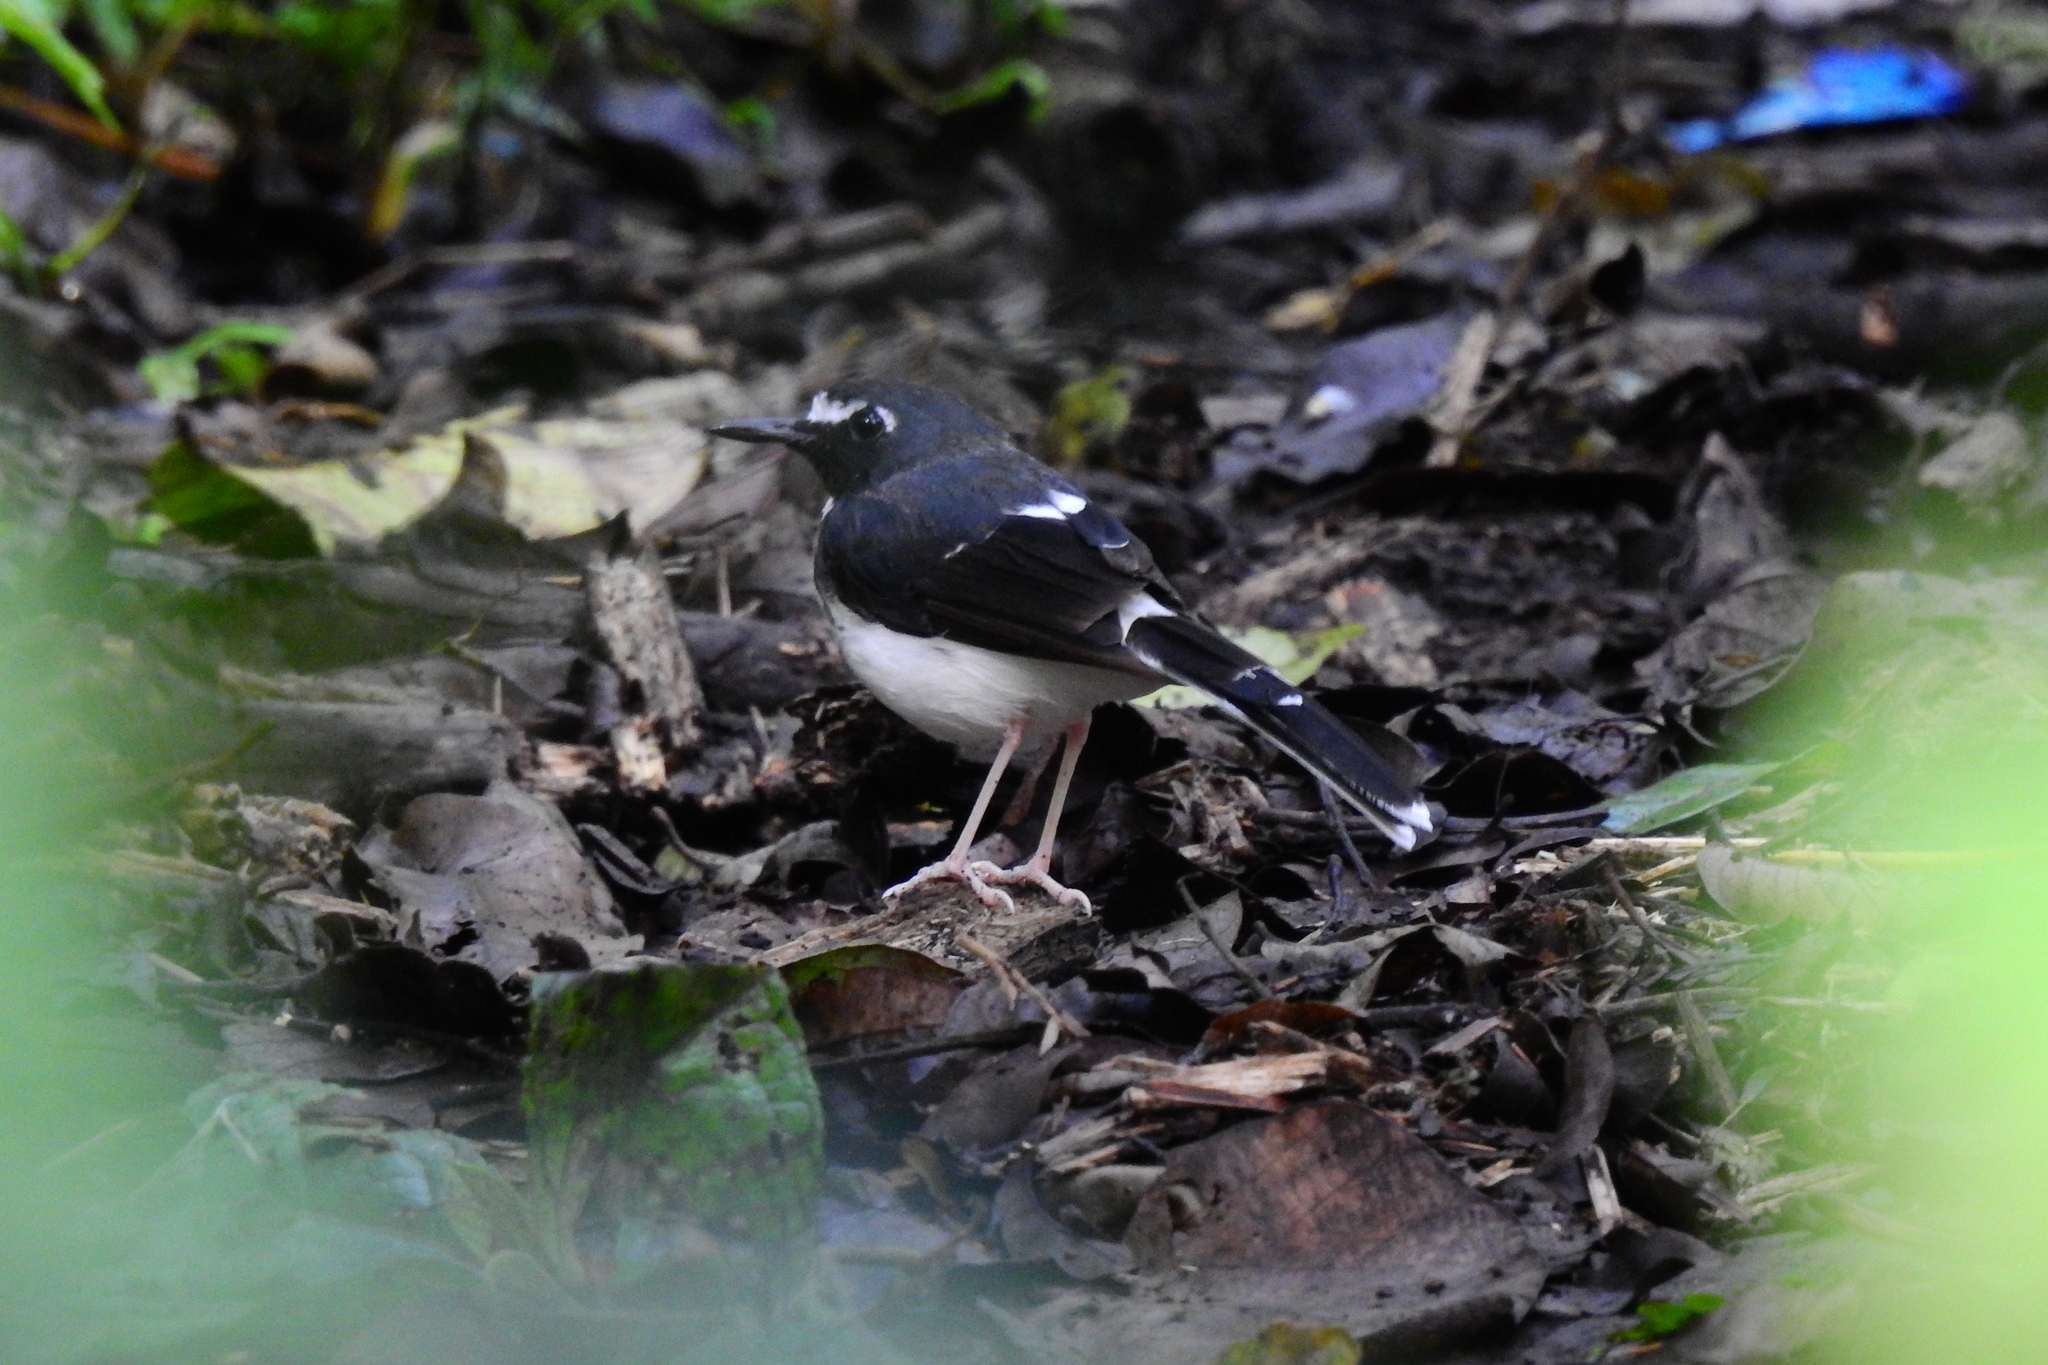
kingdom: Animalia
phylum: Chordata
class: Aves
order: Passeriformes
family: Muscicapidae
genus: Enicurus
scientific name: Enicurus velatus
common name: Sunda forktail
